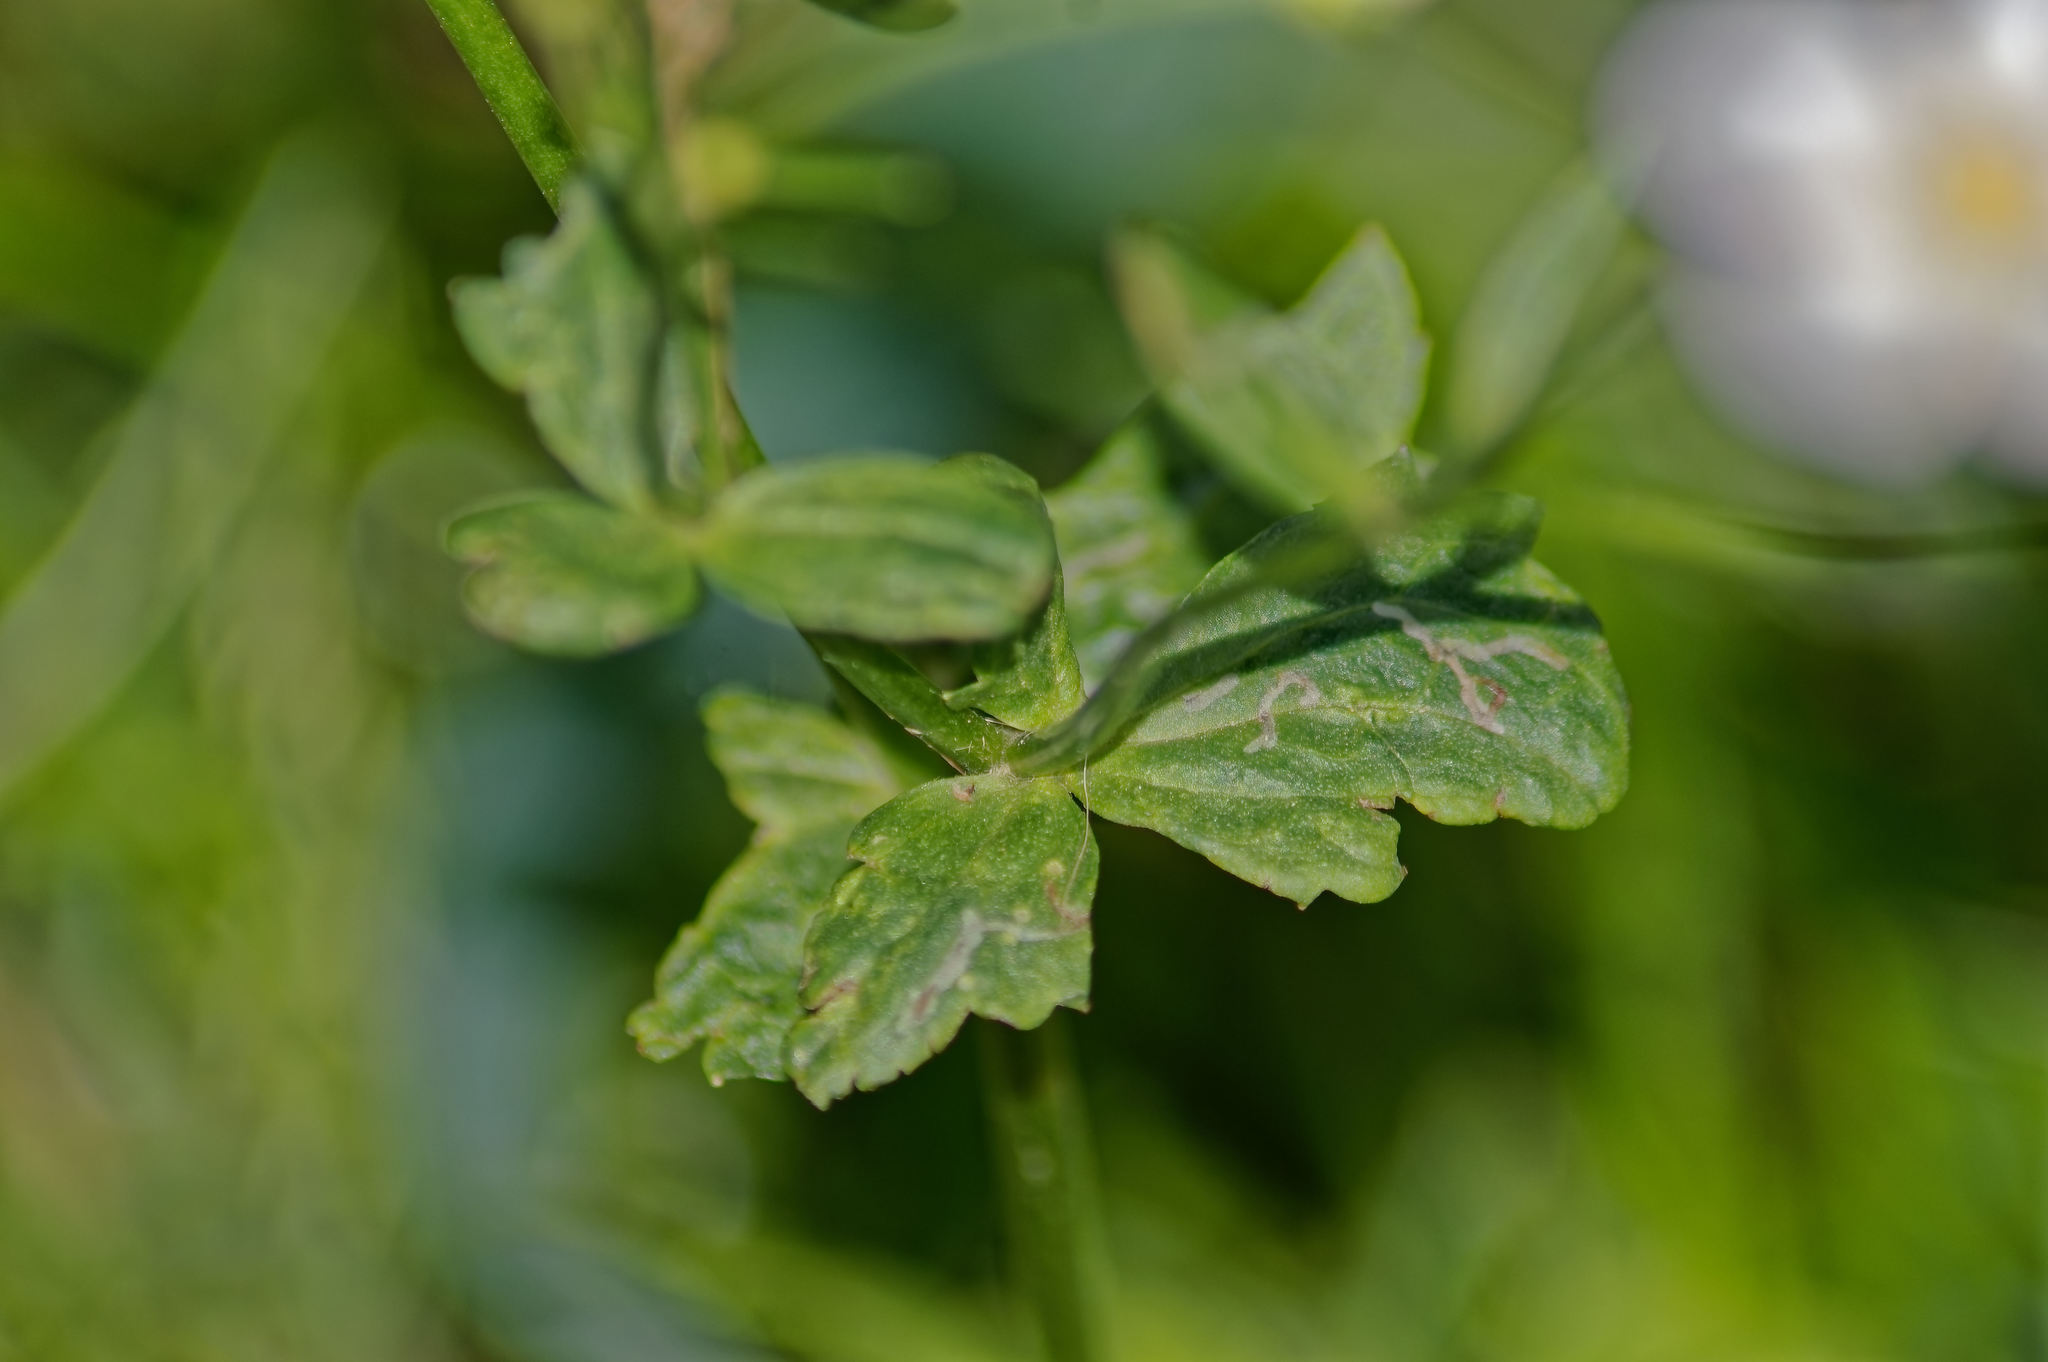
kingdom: Plantae
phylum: Tracheophyta
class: Magnoliopsida
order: Ranunculales
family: Ranunculaceae
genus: Ranunculus
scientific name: Ranunculus aconitifolius
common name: Aconite-leaved buttercup
